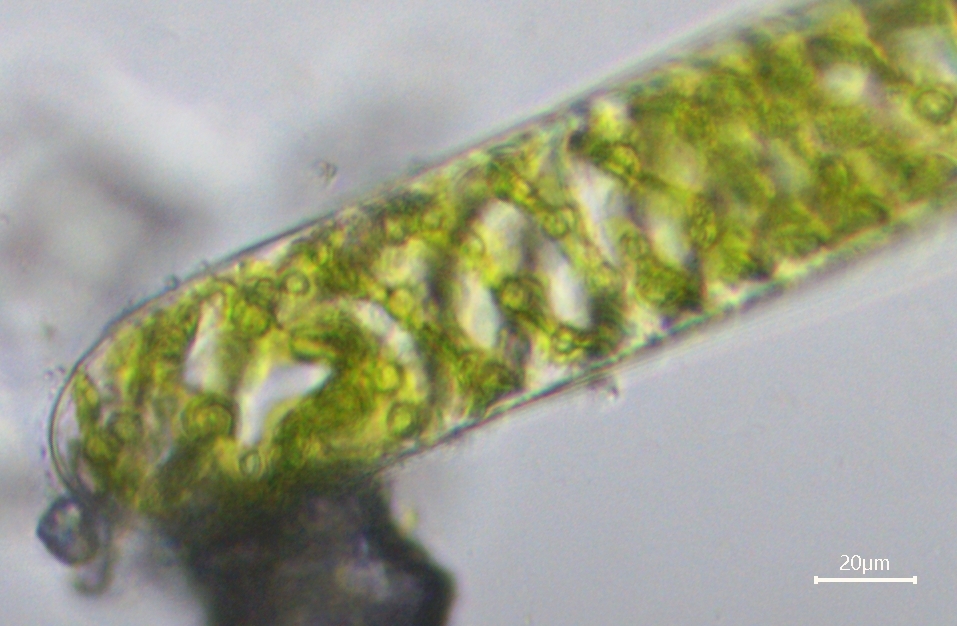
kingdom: Plantae
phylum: Charophyta
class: Zygnematophyceae
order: Zygnematales
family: Zygnemataceae
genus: Spirogyra
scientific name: Spirogyra
